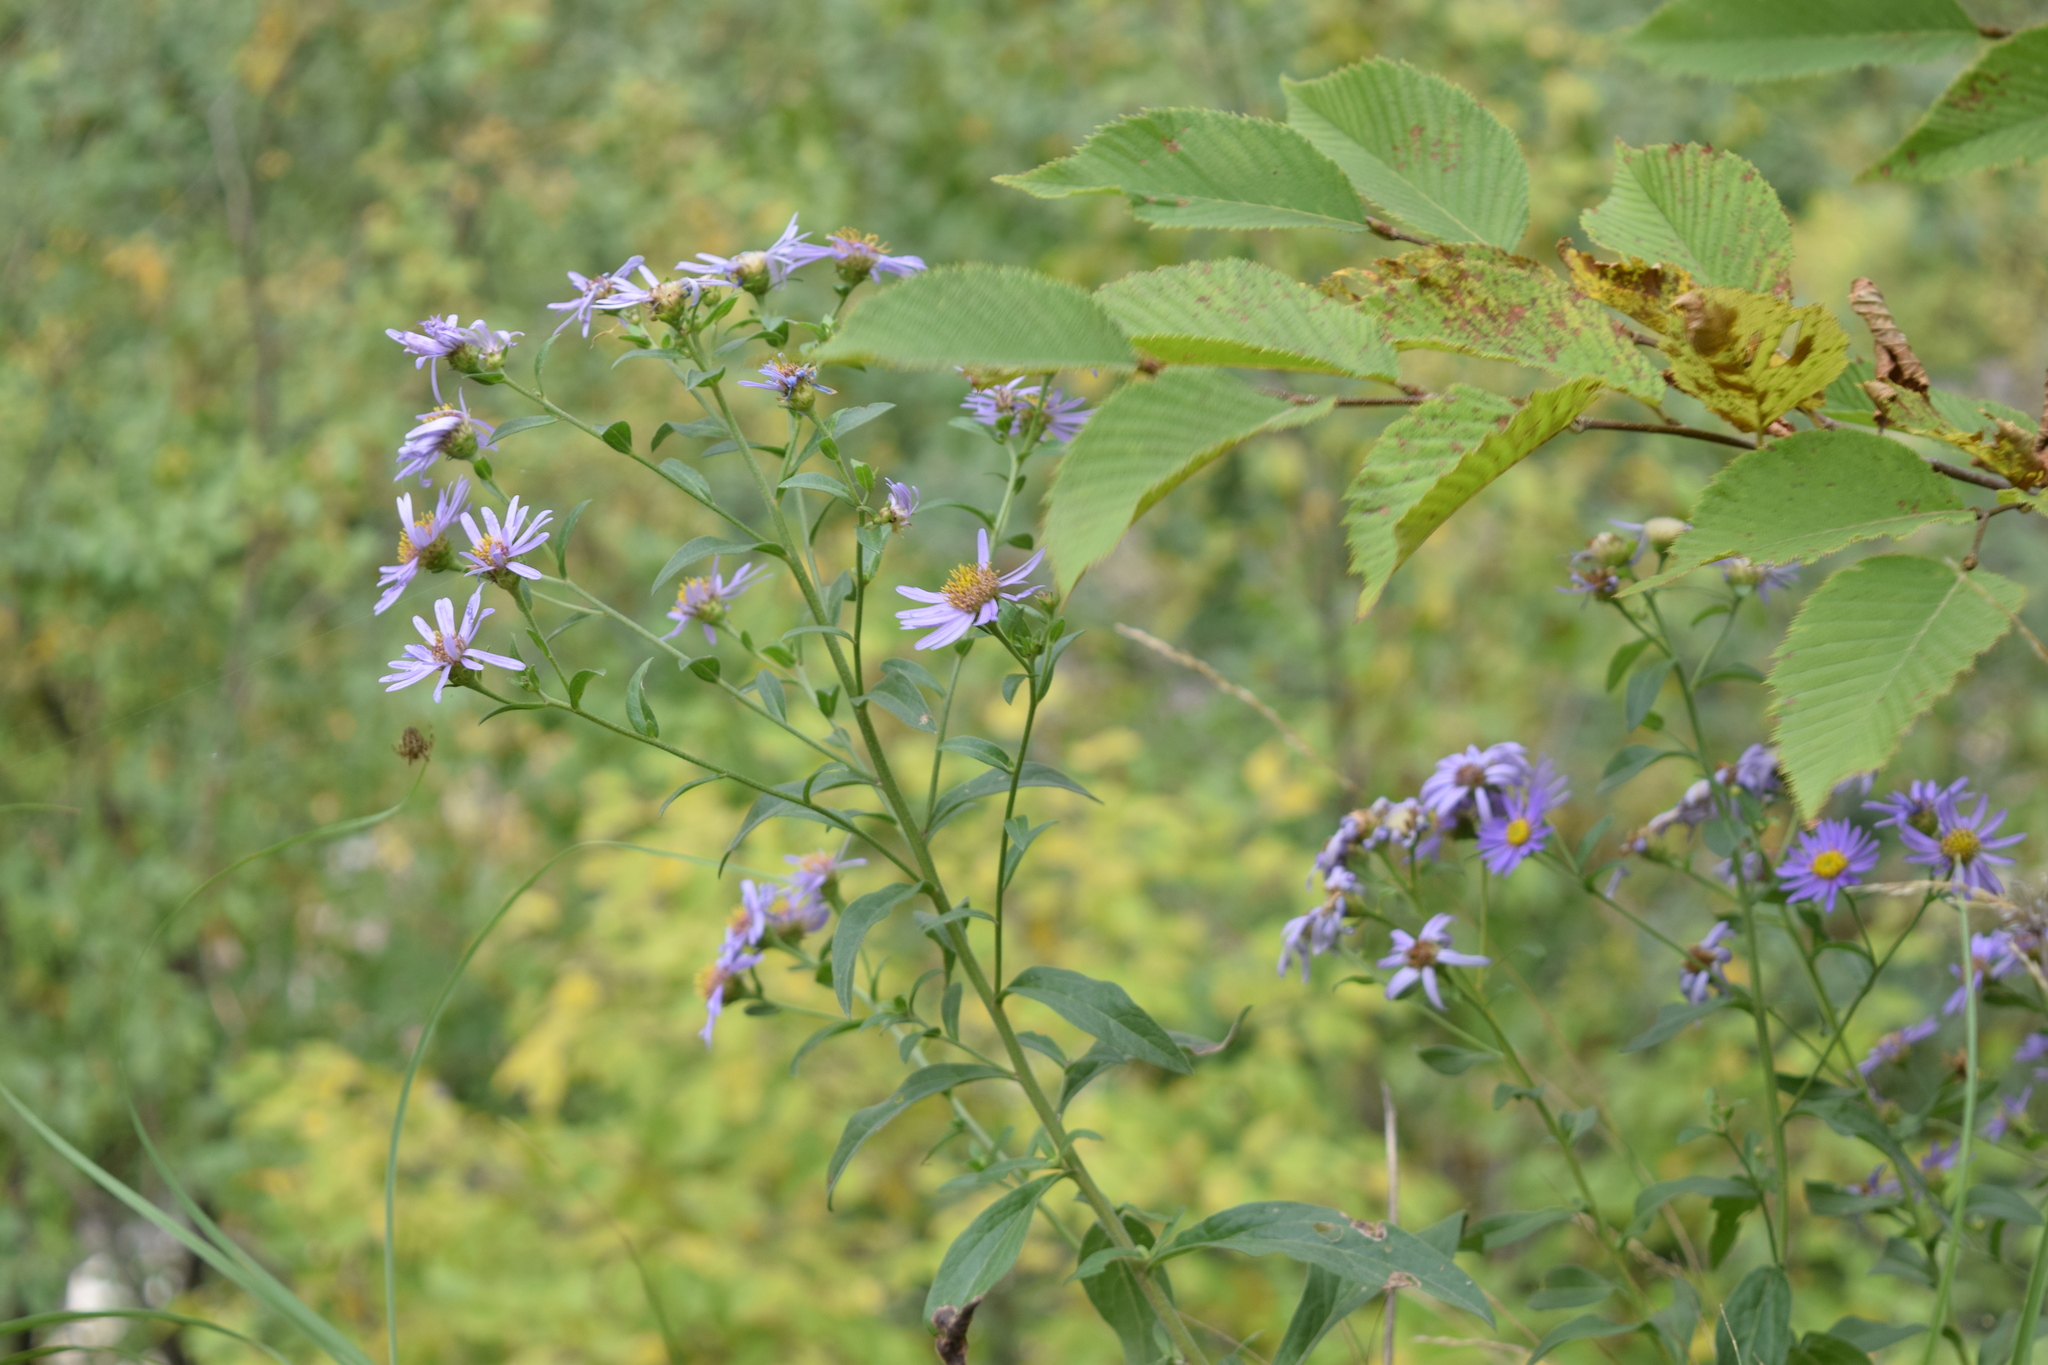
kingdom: Plantae
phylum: Tracheophyta
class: Magnoliopsida
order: Asterales
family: Asteraceae
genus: Aster
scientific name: Aster amellus
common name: European michaelmas daisy
